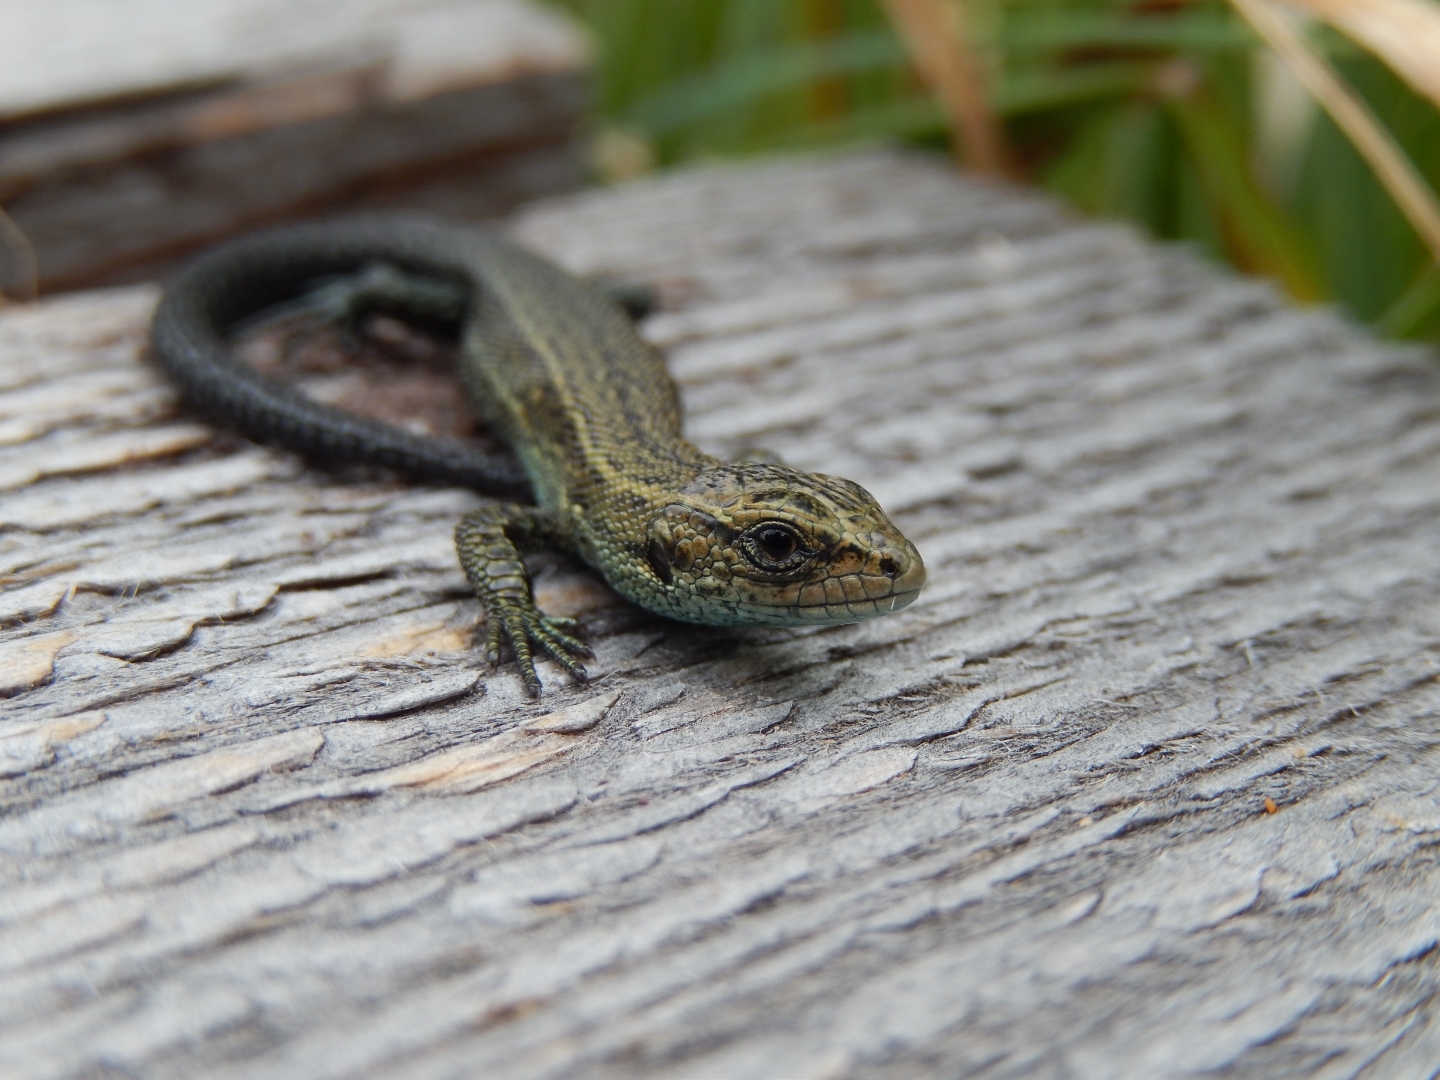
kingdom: Animalia
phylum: Chordata
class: Squamata
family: Lacertidae
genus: Zootoca
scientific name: Zootoca vivipara
